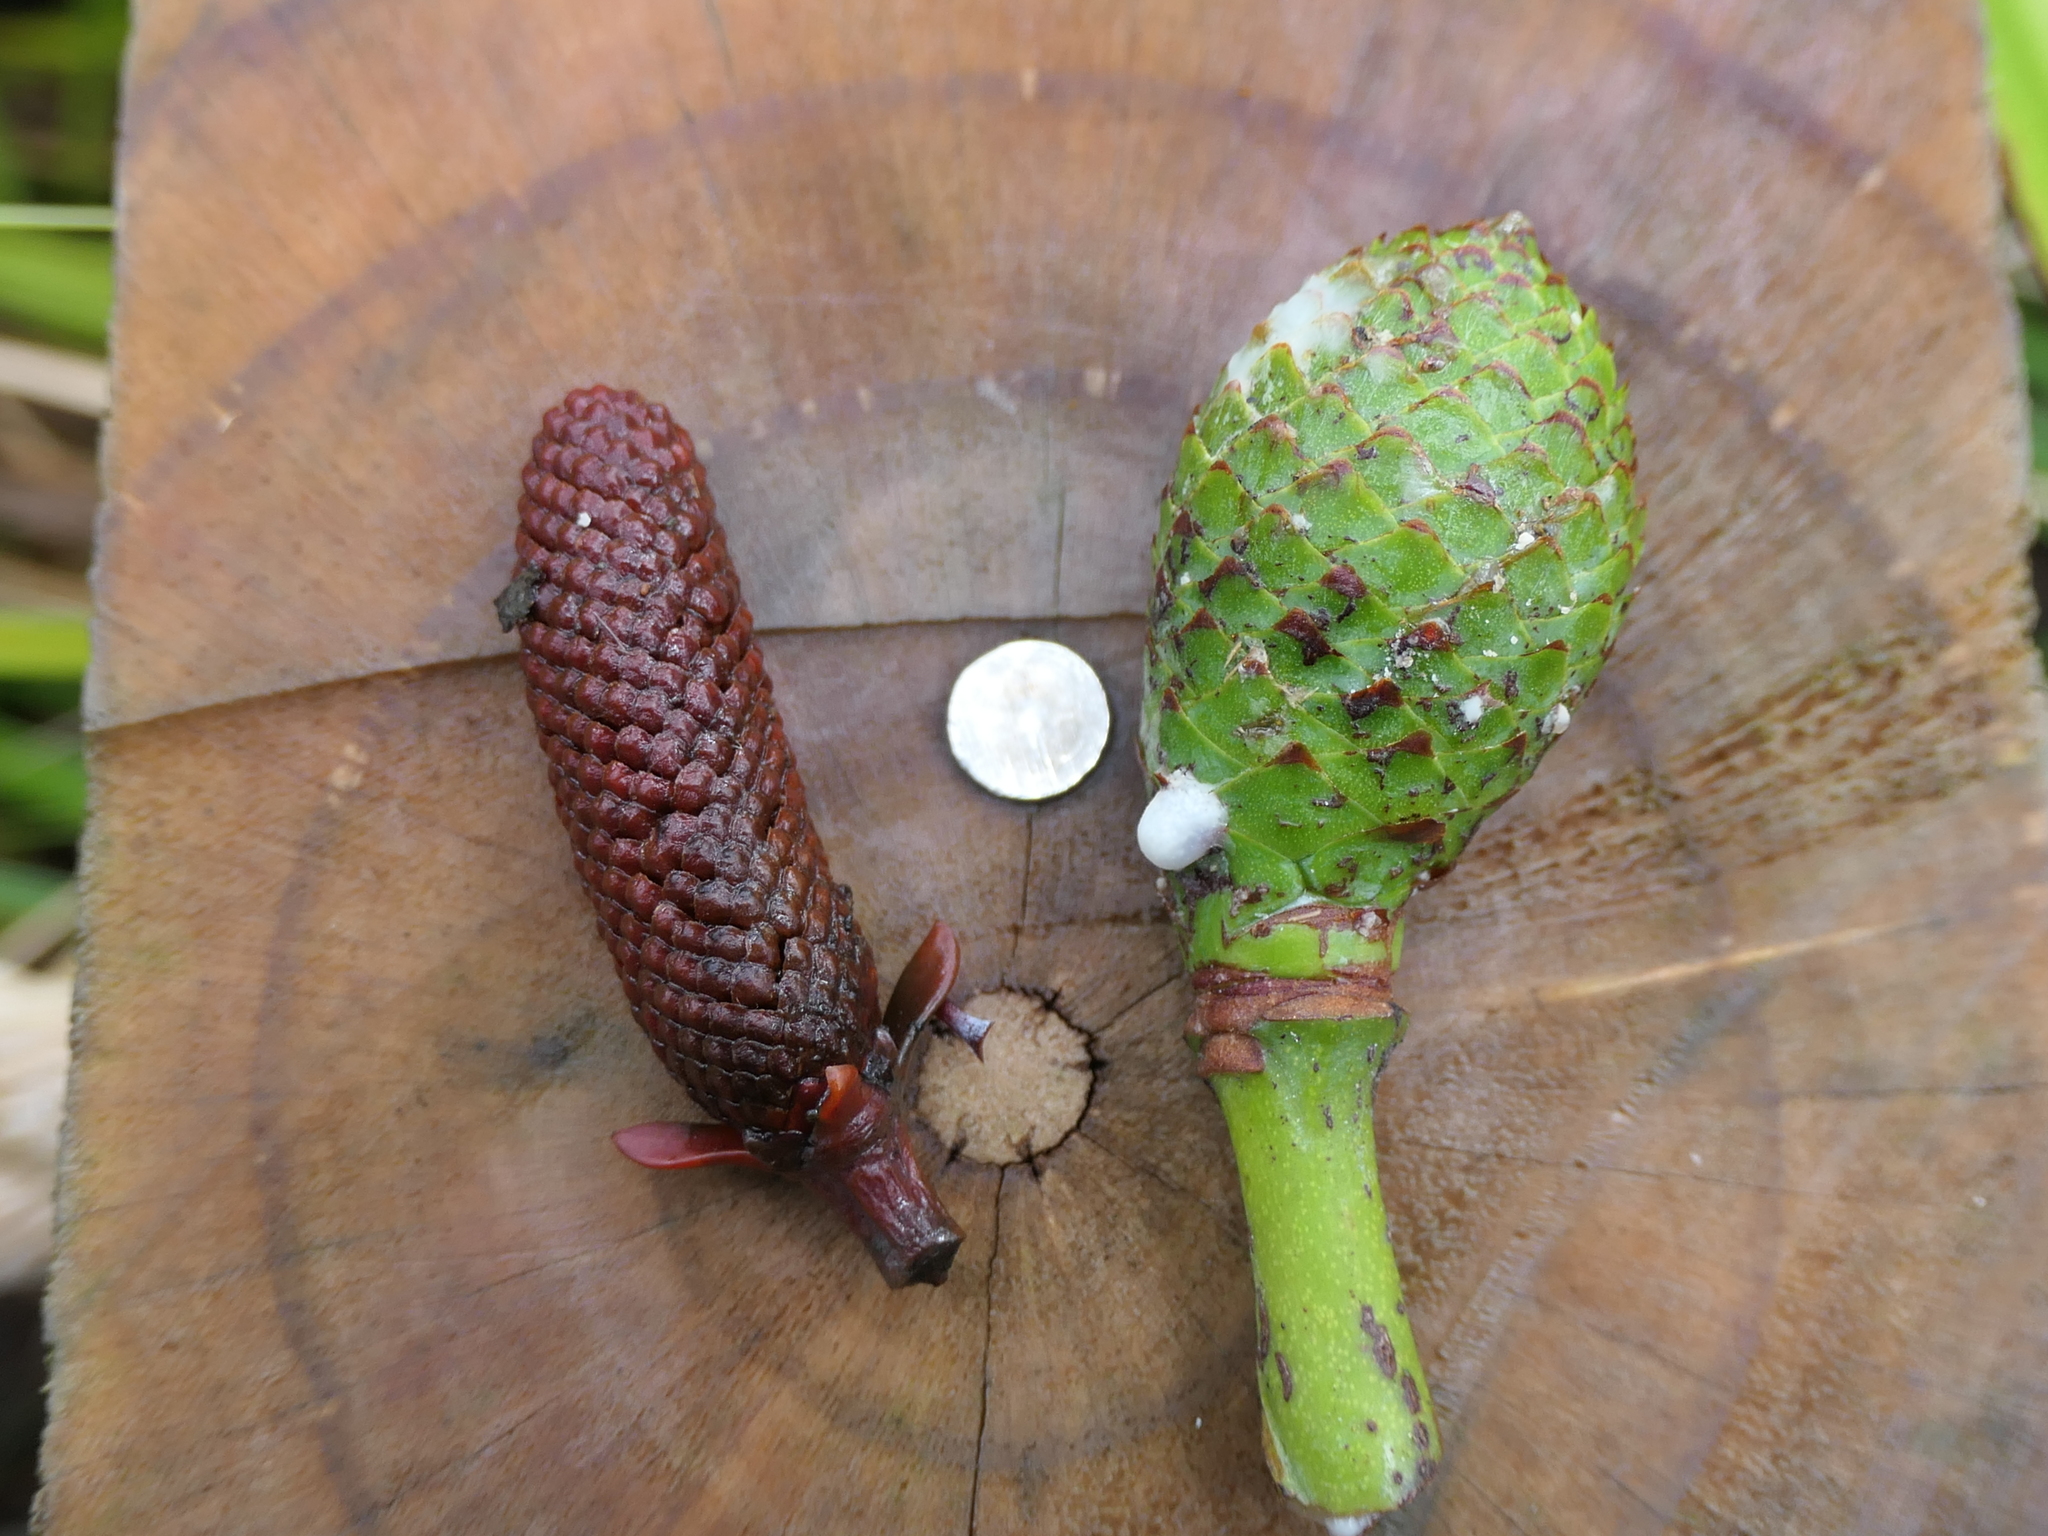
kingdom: Plantae
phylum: Tracheophyta
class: Pinopsida
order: Pinales
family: Araucariaceae
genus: Agathis
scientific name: Agathis australis
